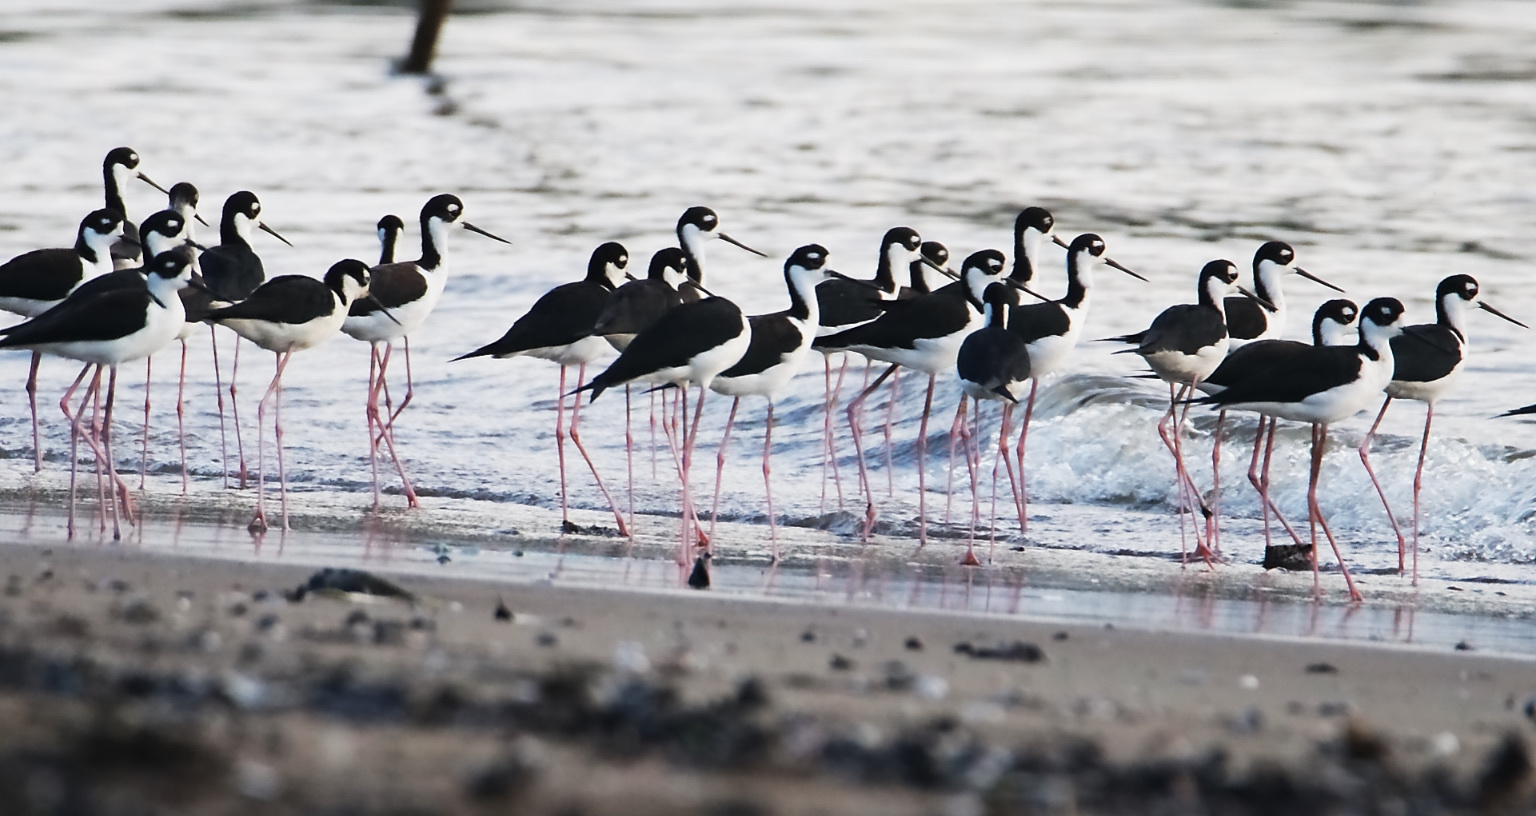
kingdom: Animalia
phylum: Chordata
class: Aves
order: Charadriiformes
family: Recurvirostridae
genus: Himantopus
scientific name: Himantopus mexicanus
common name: Black-necked stilt
